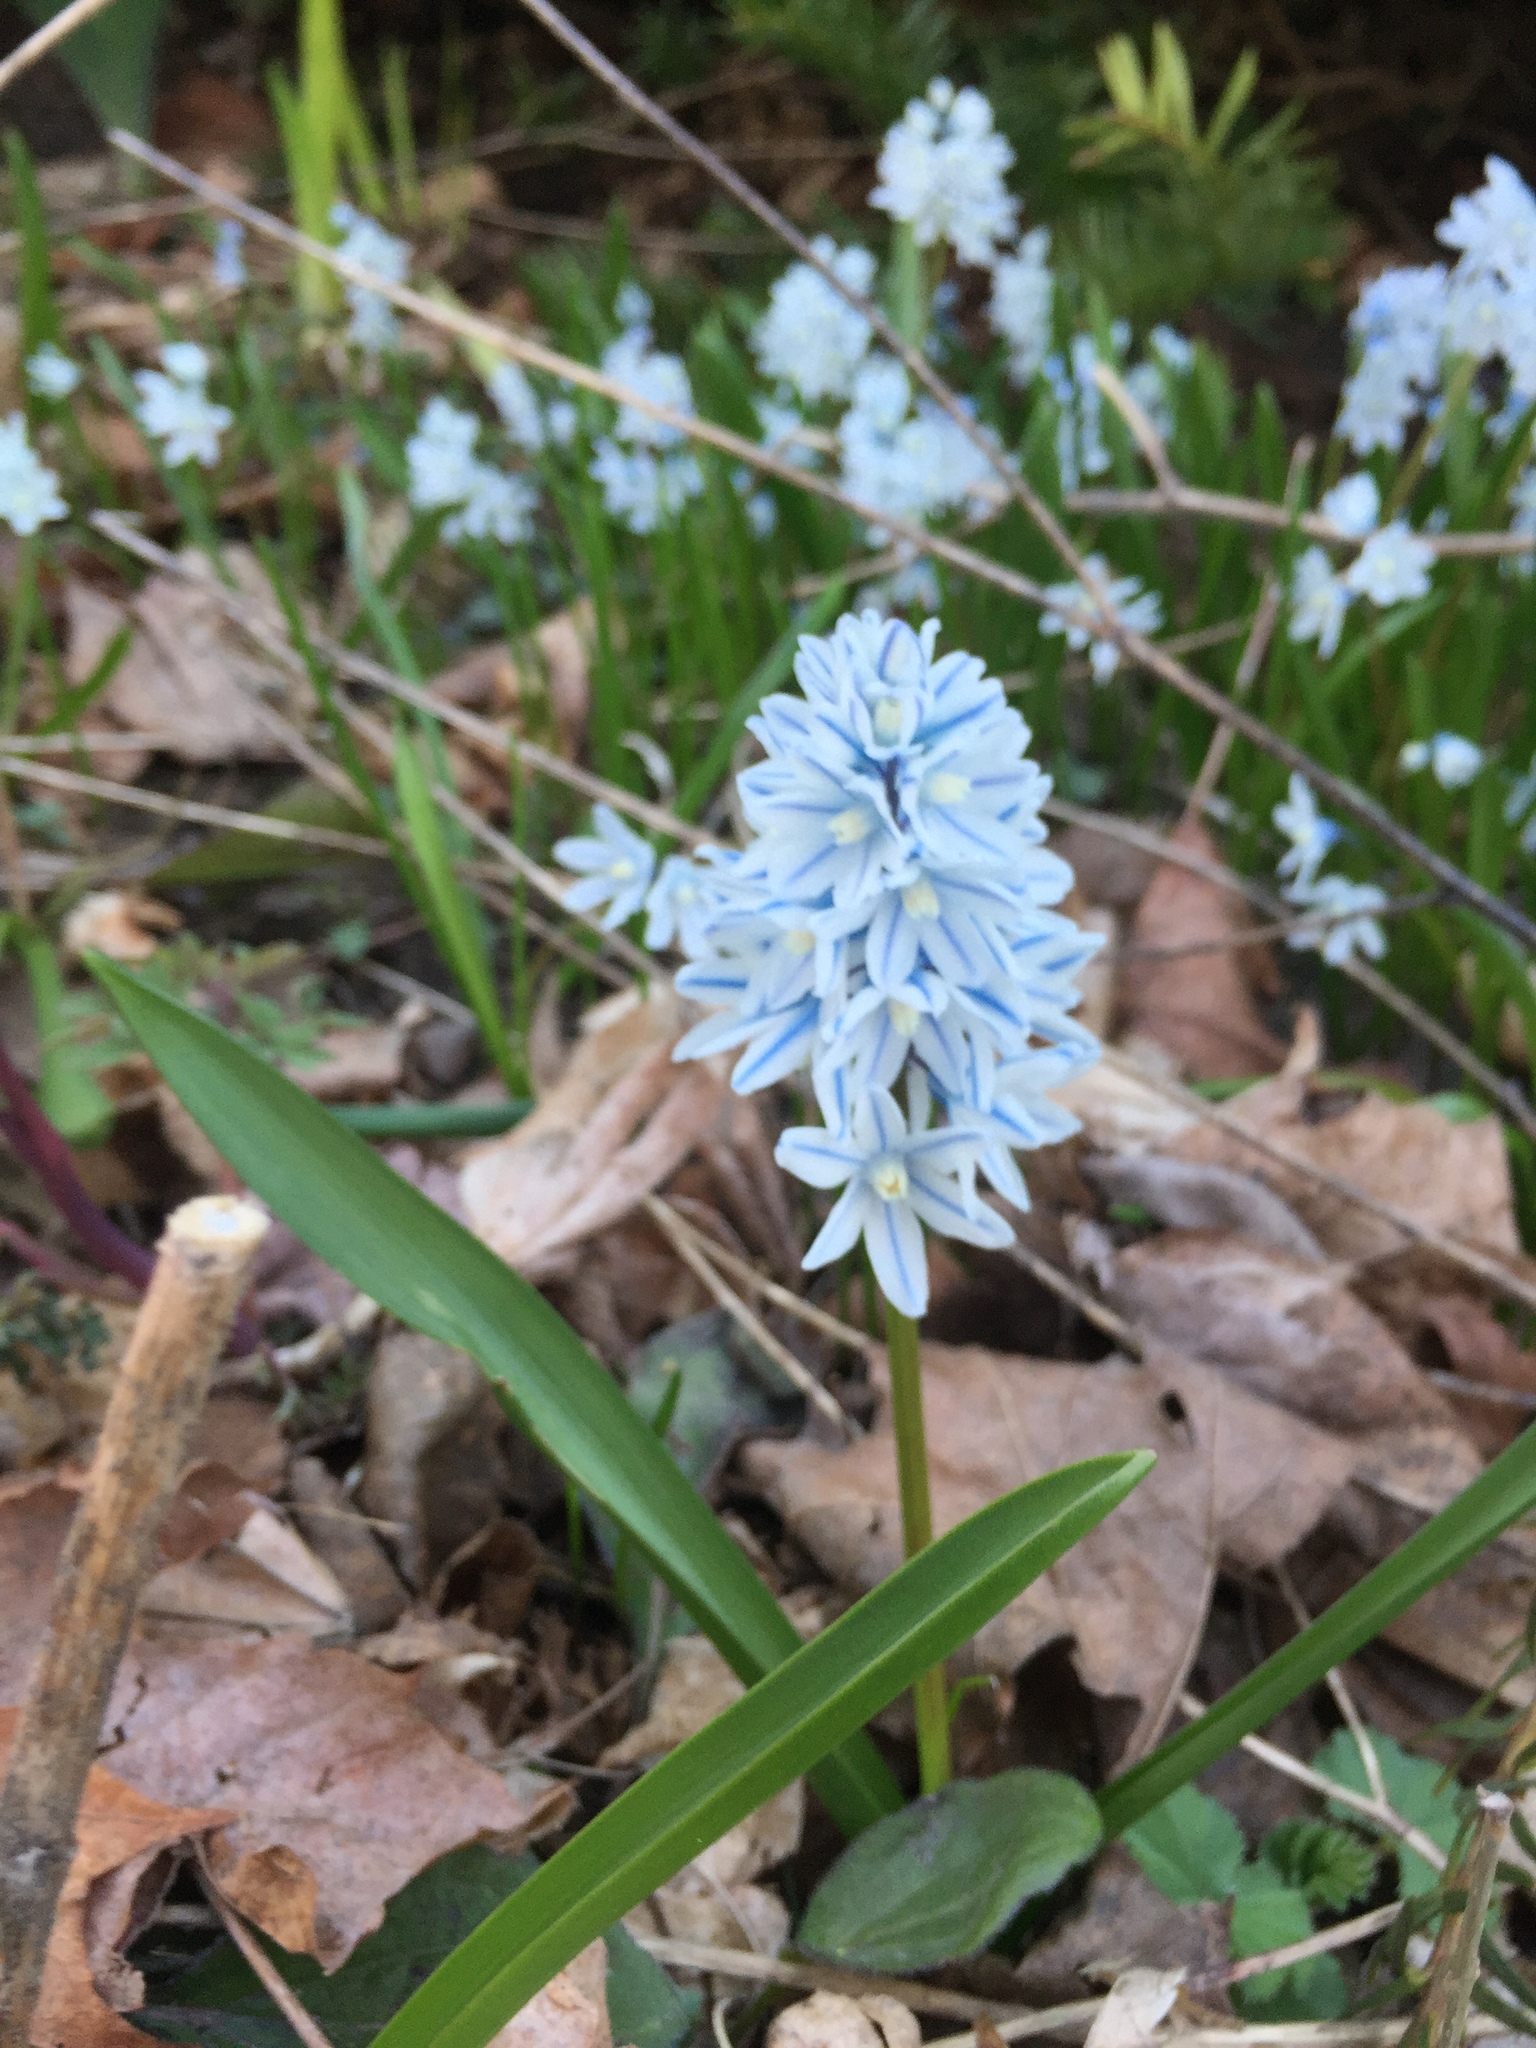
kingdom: Plantae
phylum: Tracheophyta
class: Liliopsida
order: Asparagales
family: Asparagaceae
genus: Puschkinia
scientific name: Puschkinia scilloides
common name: Striped squill
